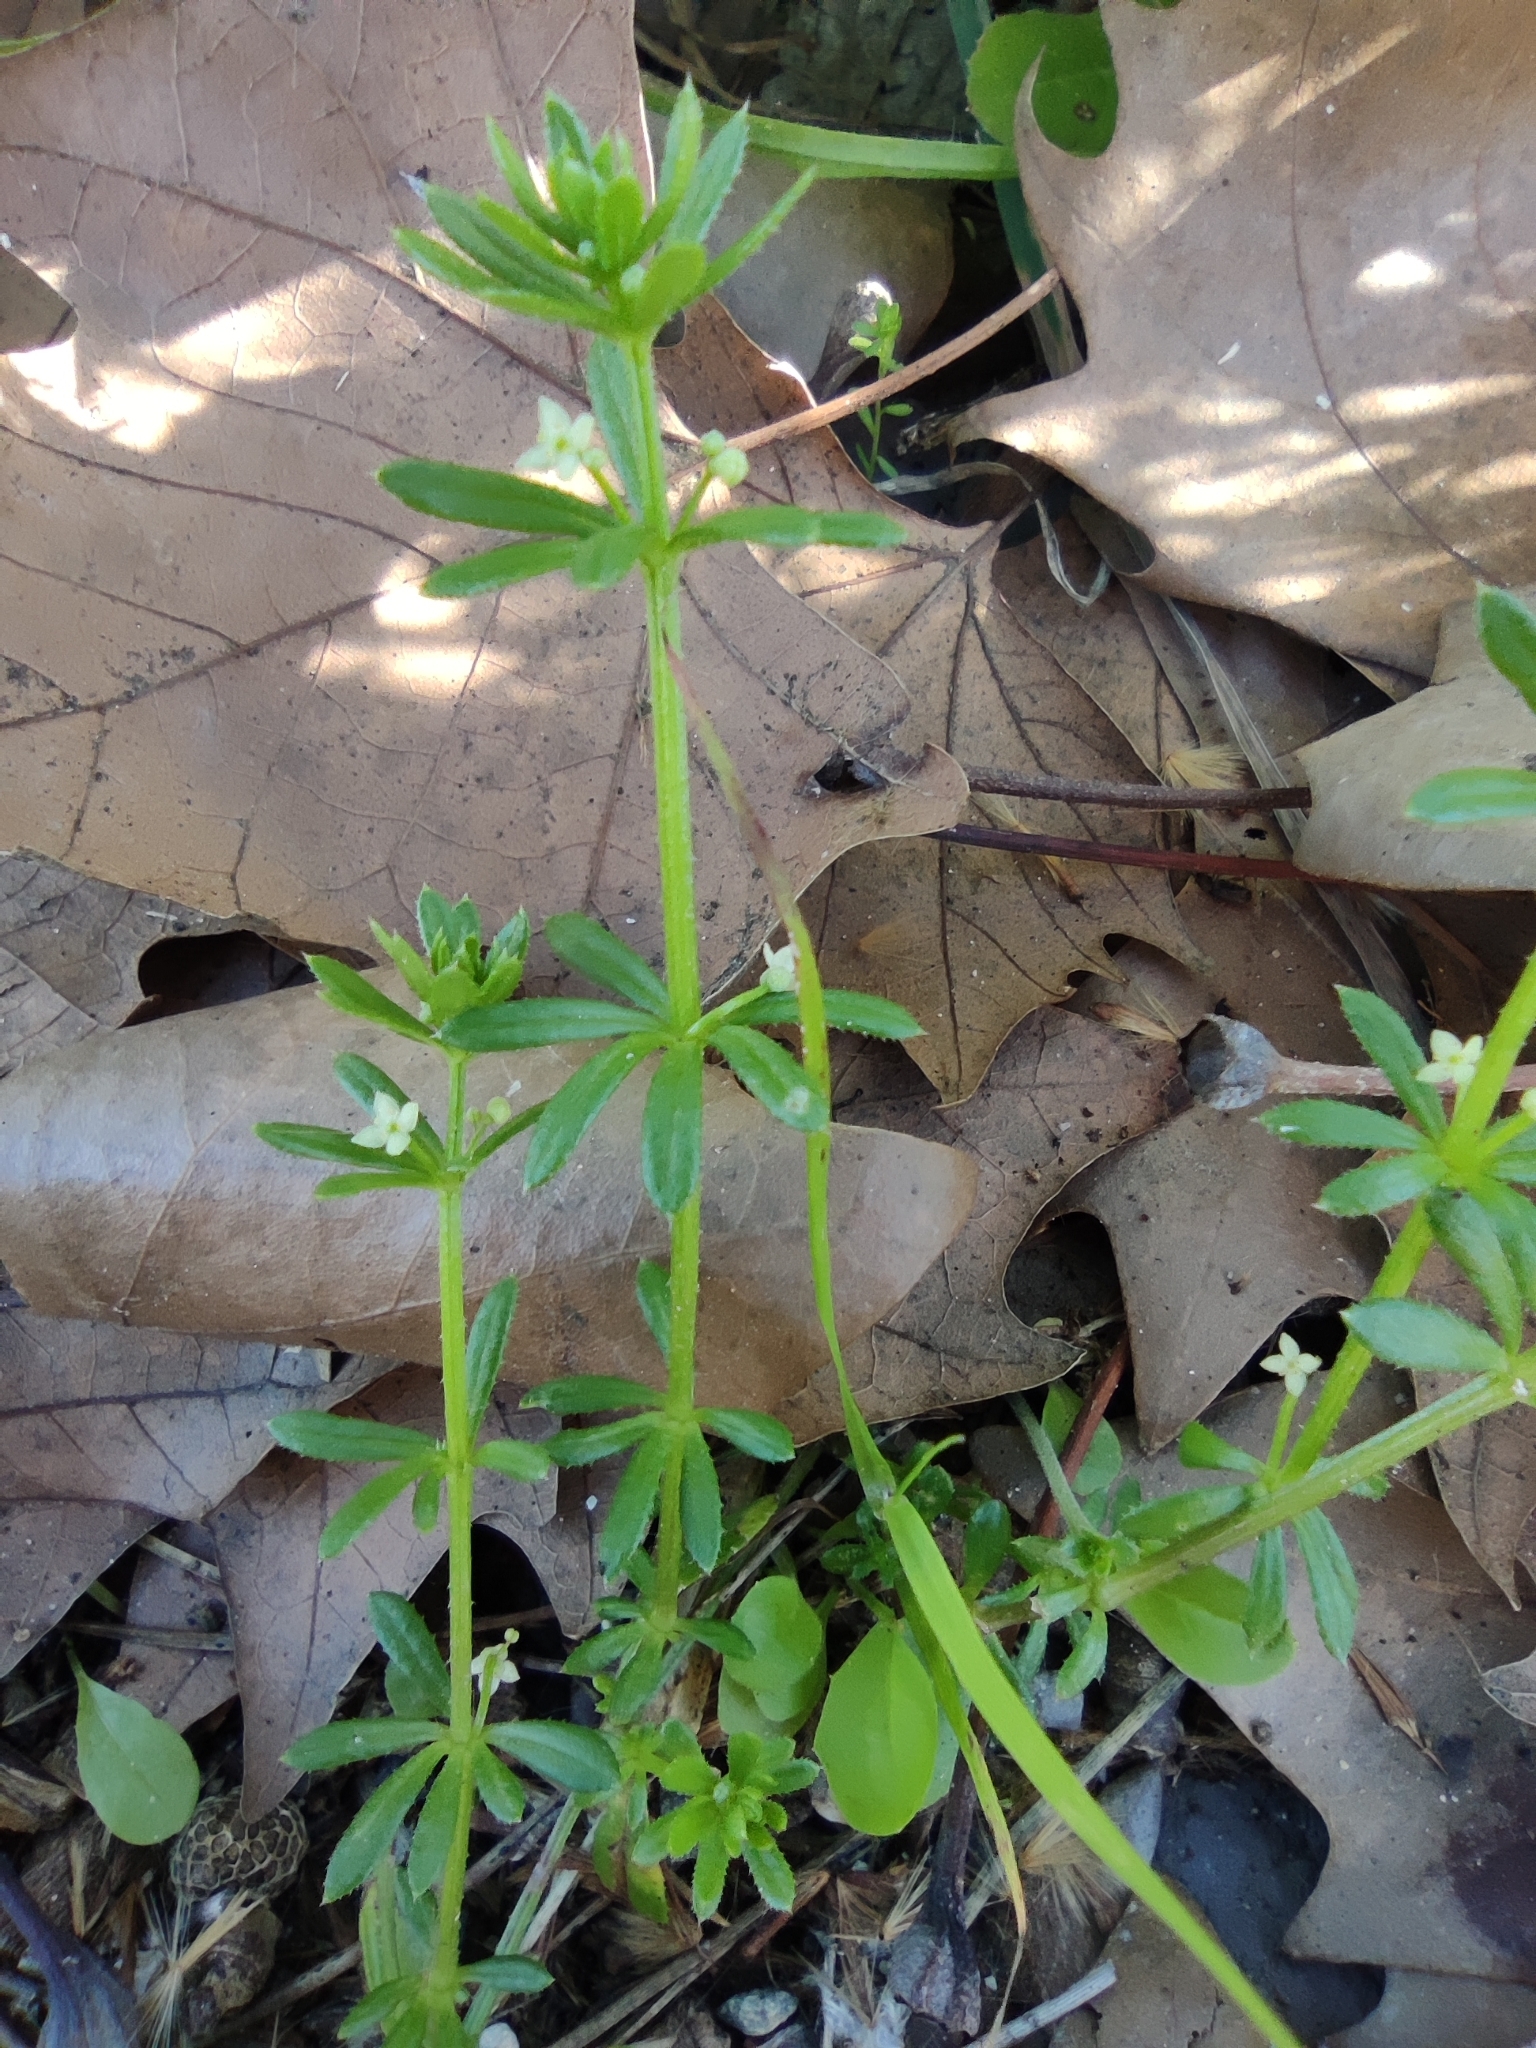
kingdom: Plantae
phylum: Tracheophyta
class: Magnoliopsida
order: Gentianales
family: Rubiaceae
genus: Galium
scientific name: Galium verrucosum
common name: Warty bedstraw
